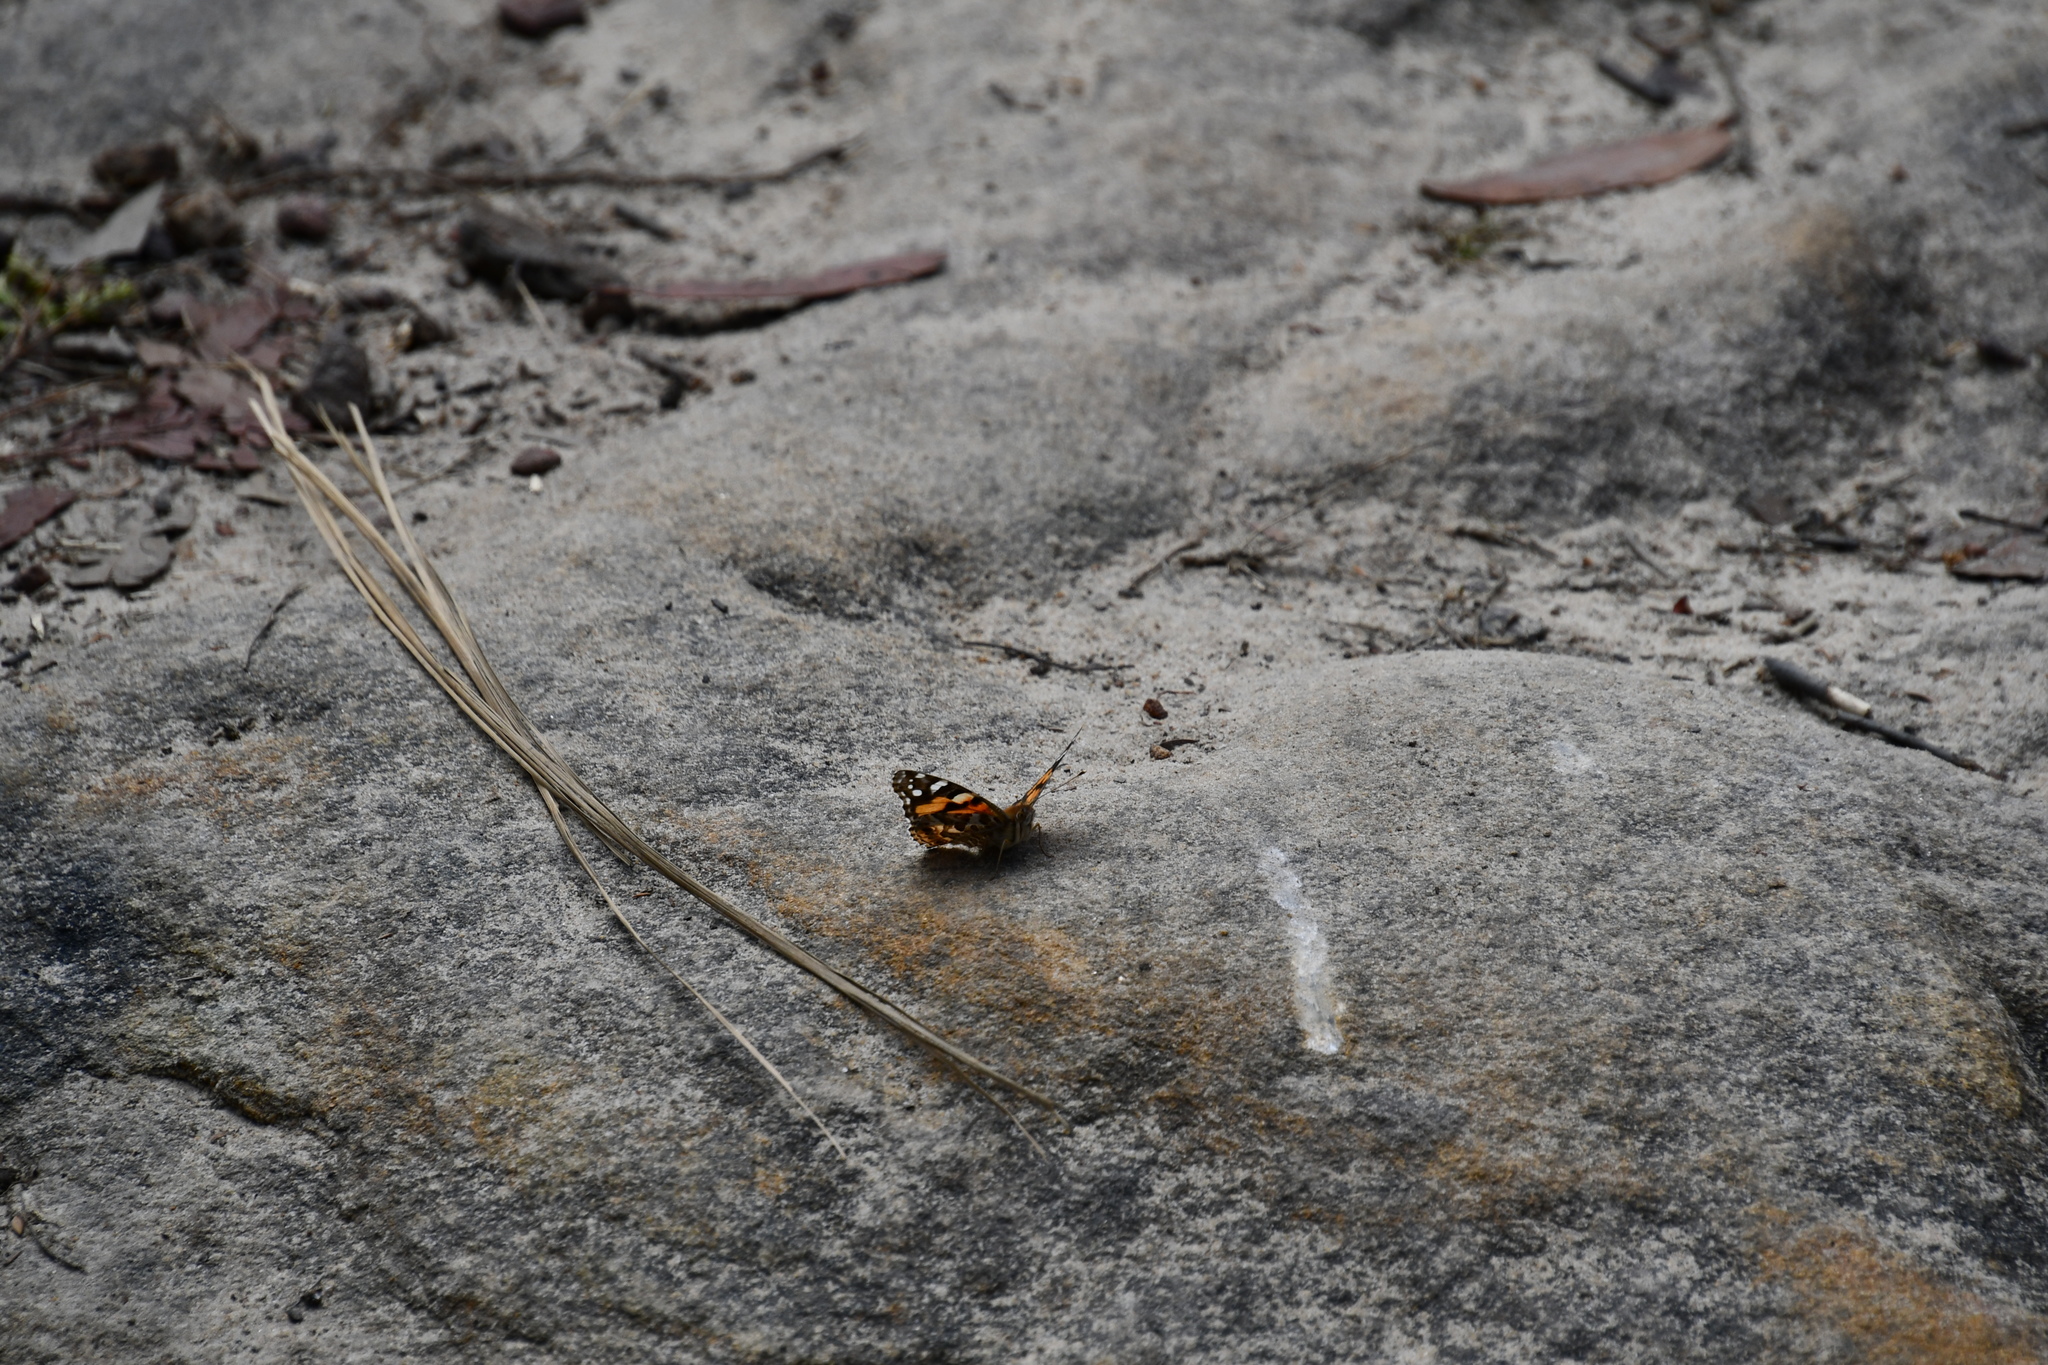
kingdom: Animalia
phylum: Arthropoda
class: Insecta
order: Lepidoptera
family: Nymphalidae
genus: Vanessa
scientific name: Vanessa kershawi
